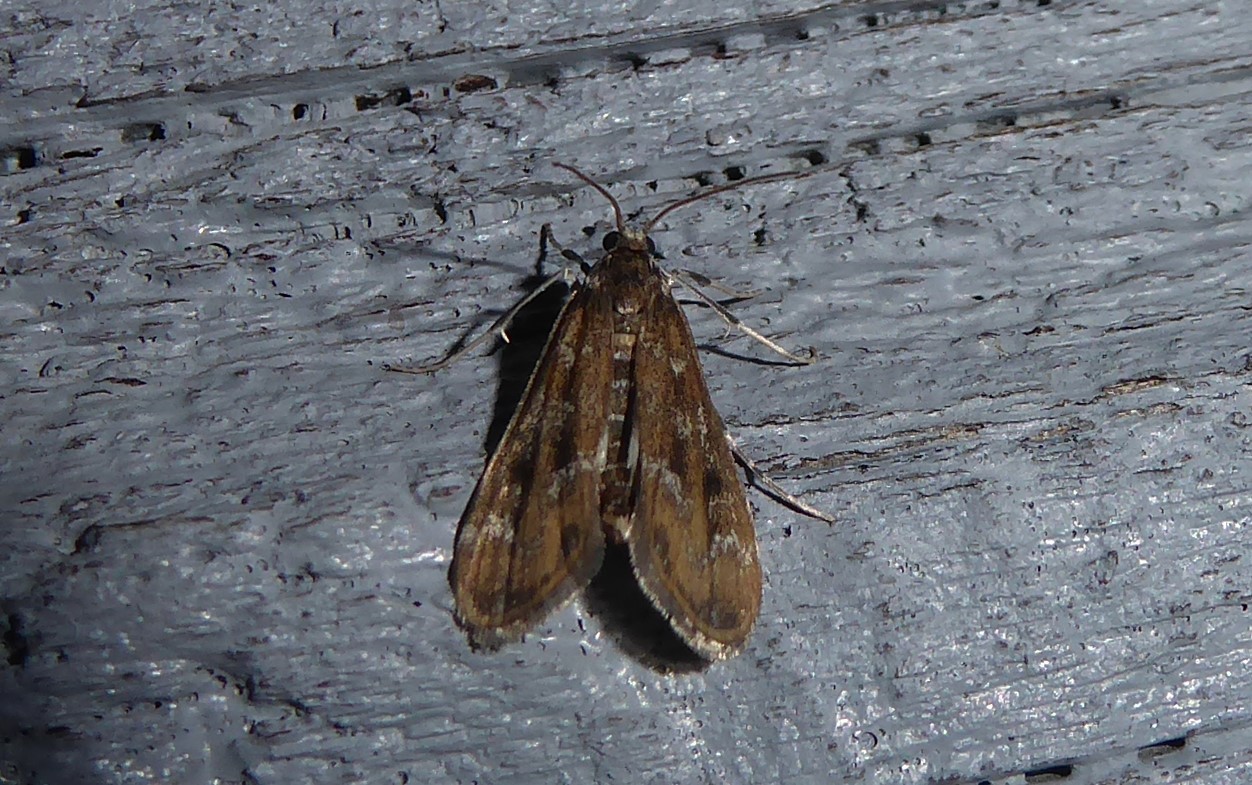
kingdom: Animalia
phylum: Arthropoda
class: Insecta
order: Lepidoptera
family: Crambidae
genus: Hygraula
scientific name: Hygraula nitens
